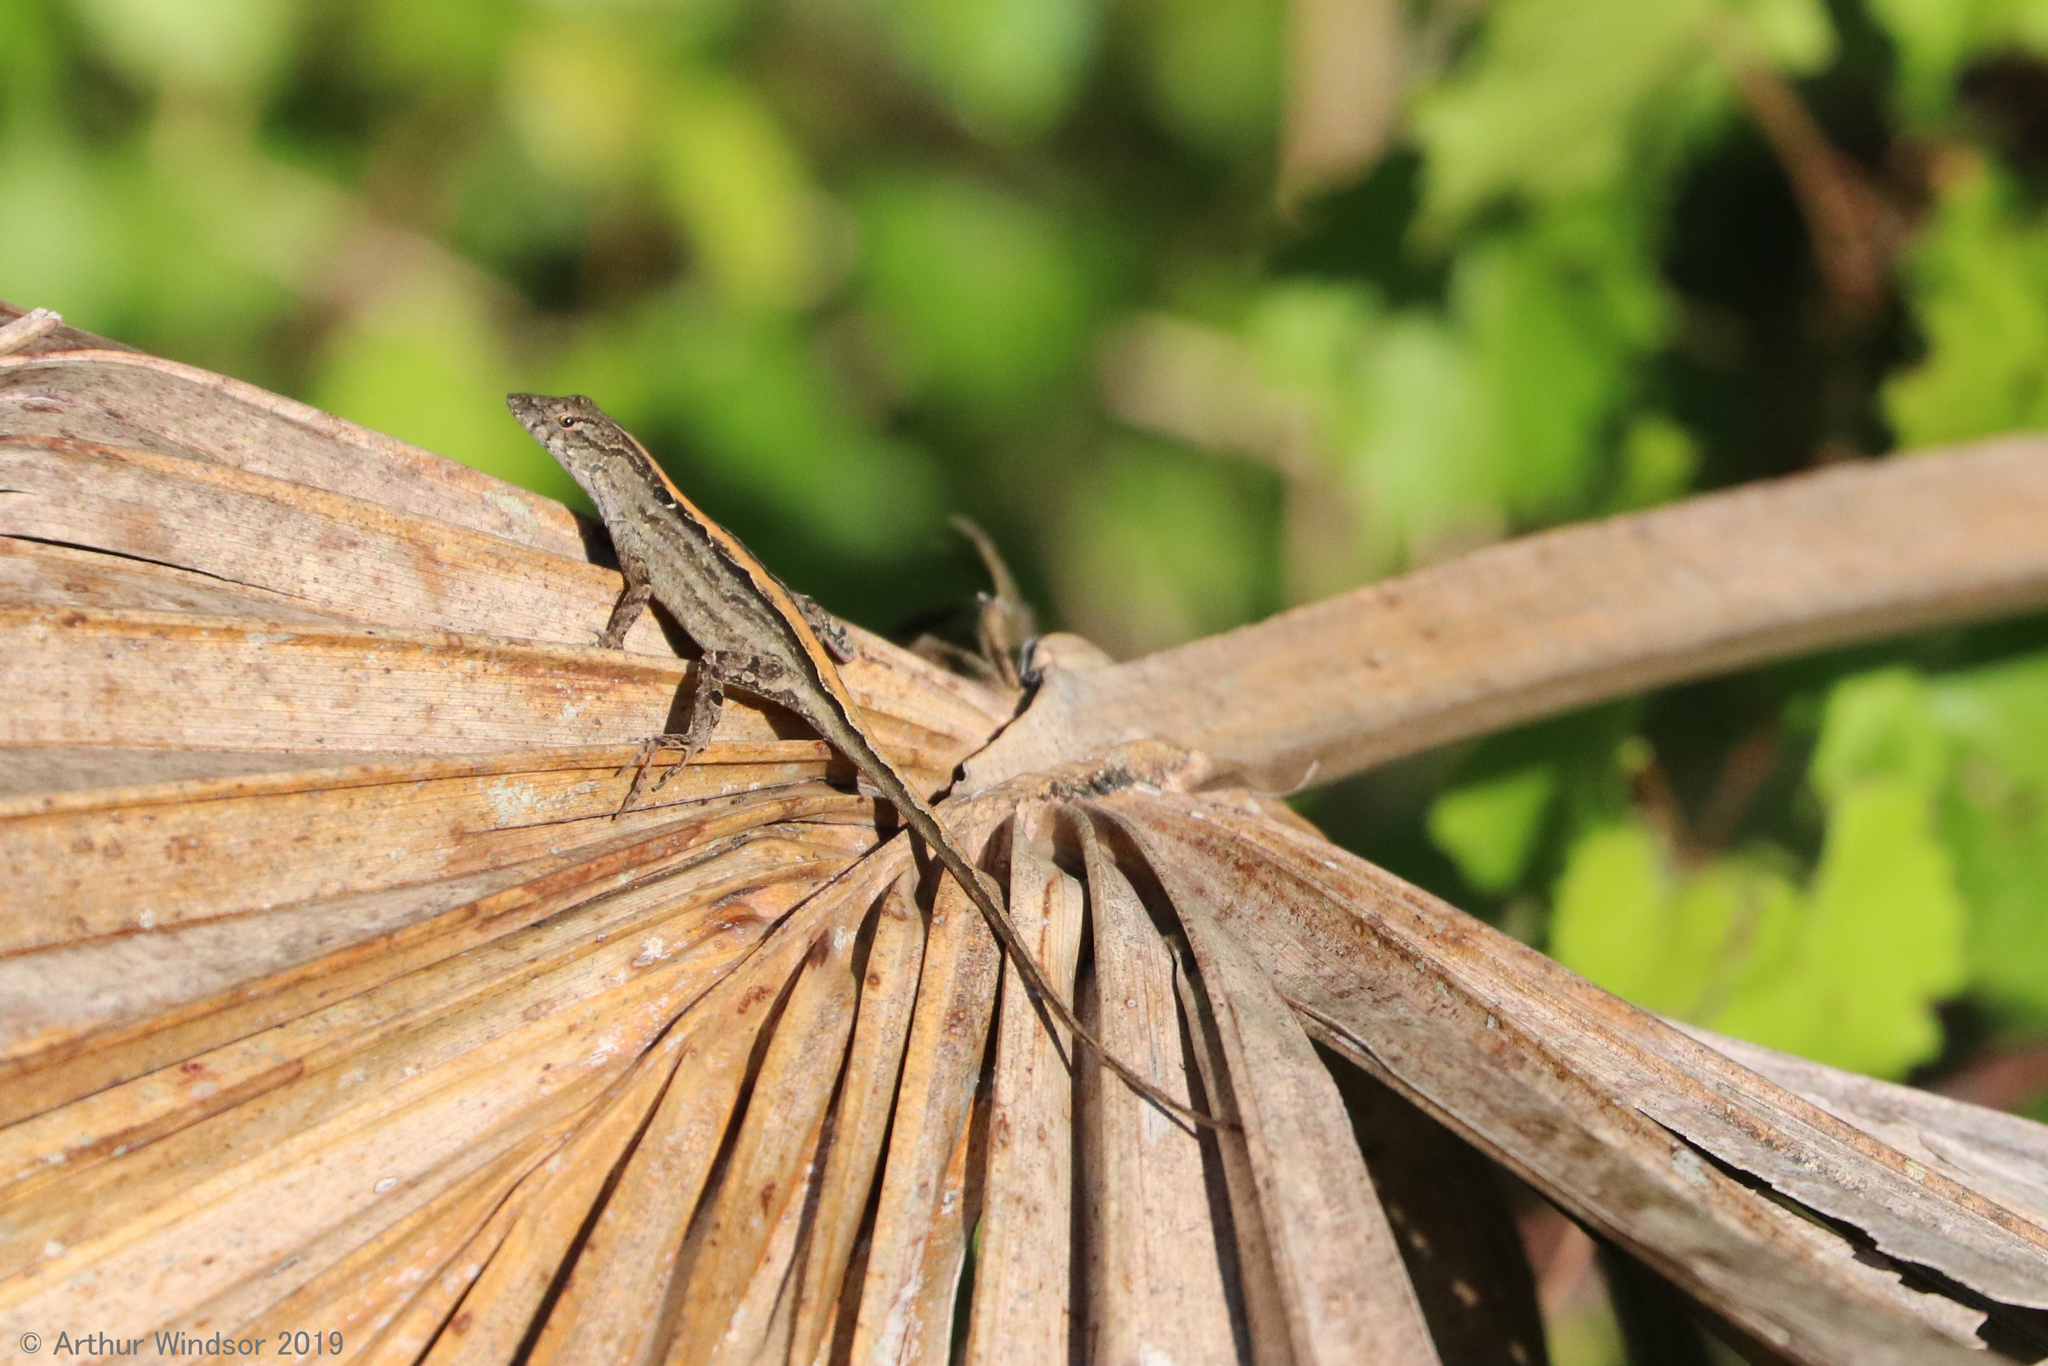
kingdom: Animalia
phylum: Chordata
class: Squamata
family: Dactyloidae
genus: Anolis
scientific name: Anolis sagrei
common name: Brown anole
